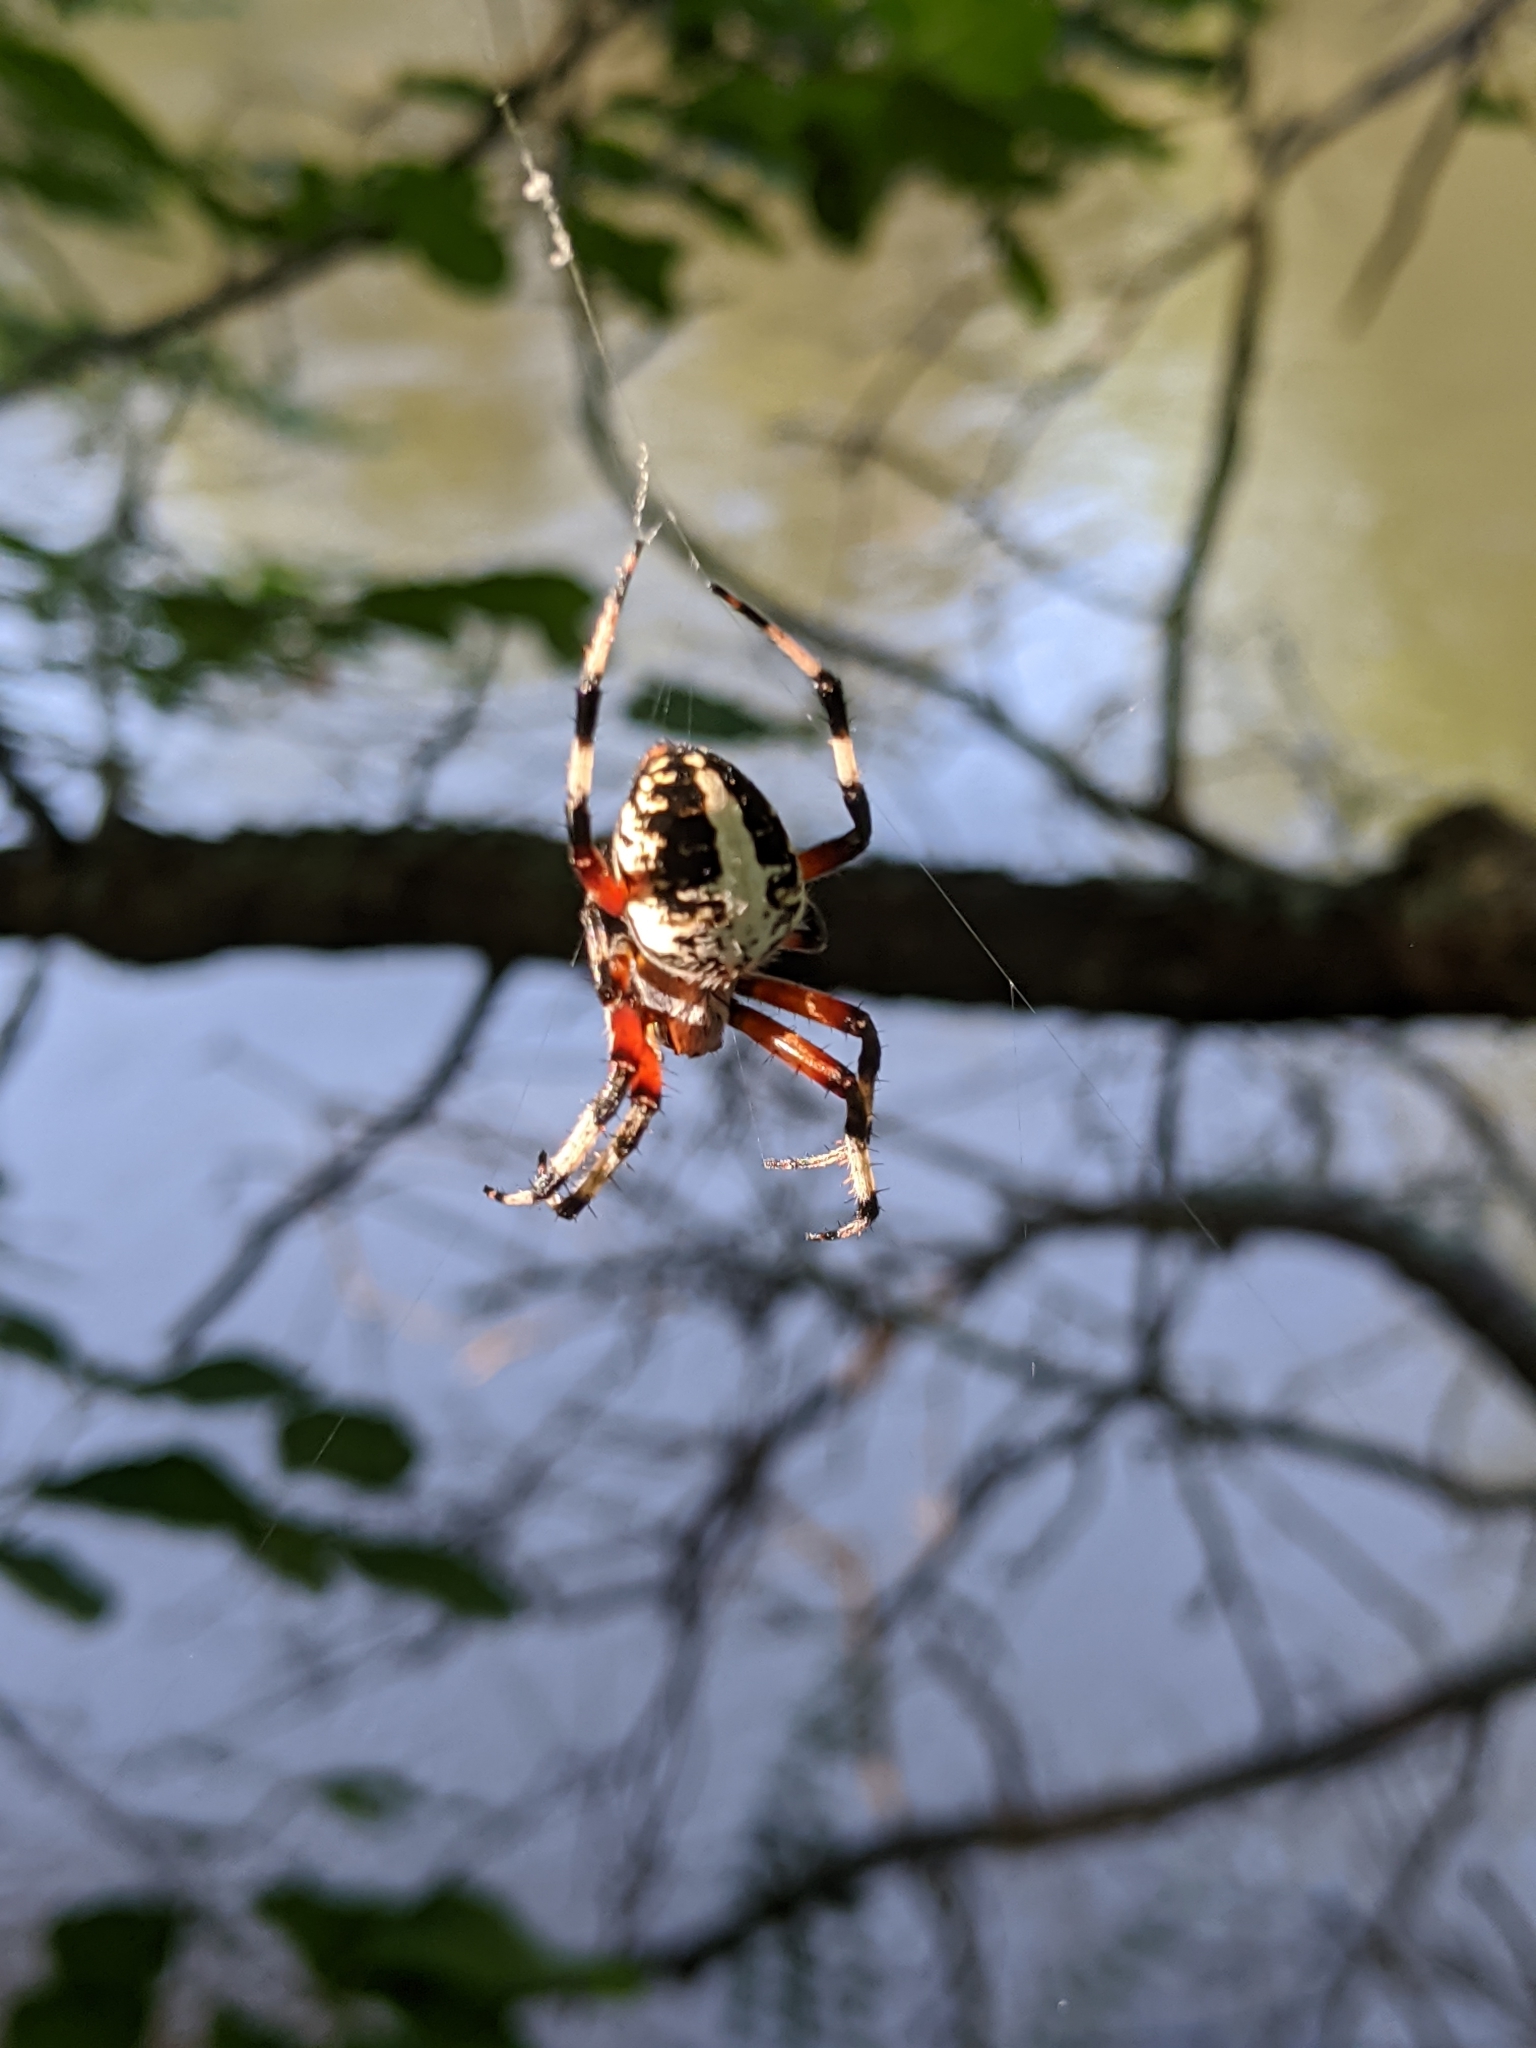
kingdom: Animalia
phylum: Arthropoda
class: Arachnida
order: Araneae
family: Araneidae
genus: Neoscona
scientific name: Neoscona domiciliorum
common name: Red-femured spotted orbweaver
